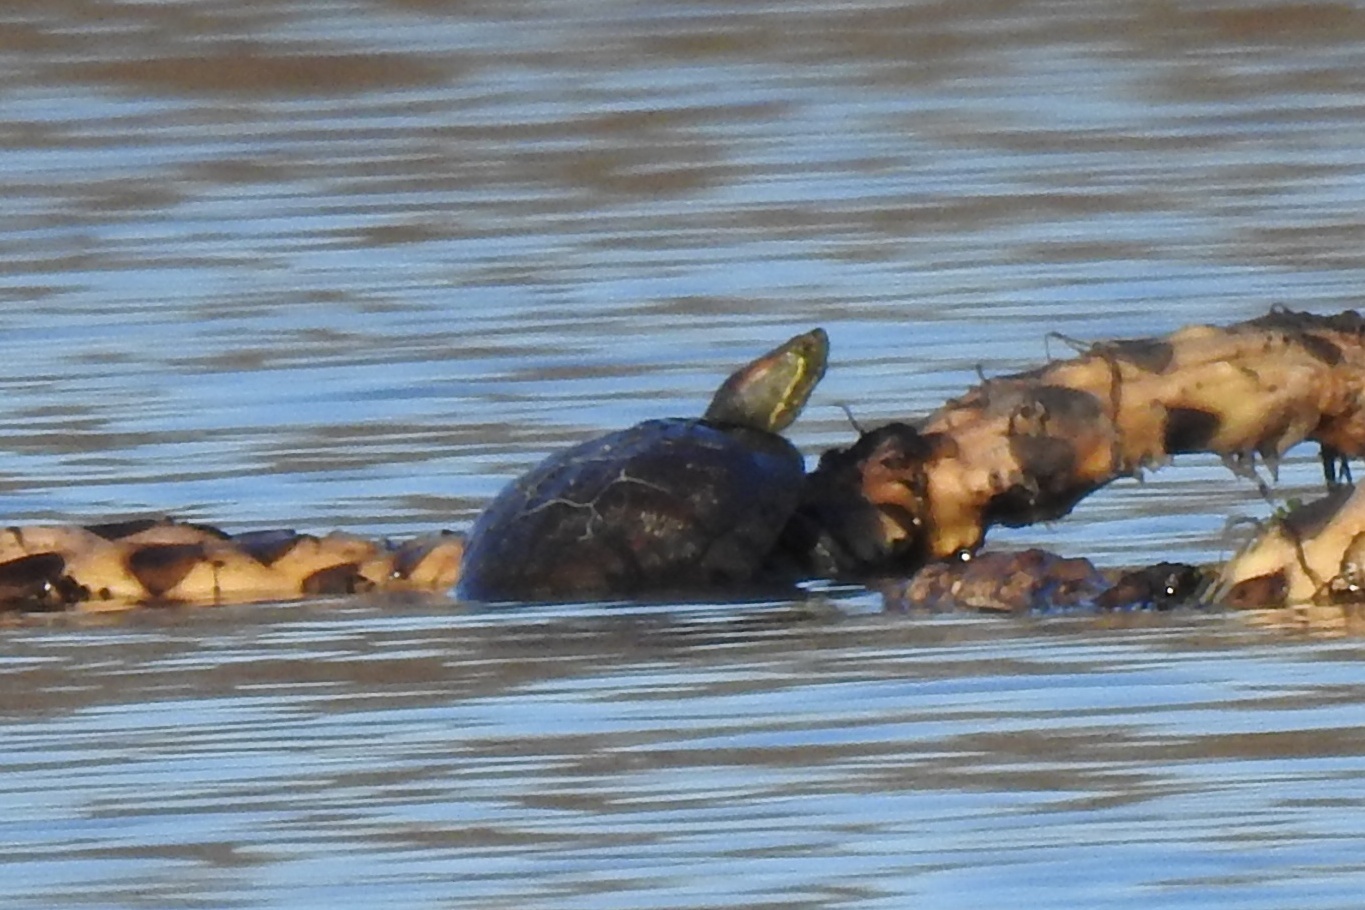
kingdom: Animalia
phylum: Chordata
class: Testudines
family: Emydidae
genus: Trachemys
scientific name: Trachemys scripta
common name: Slider
